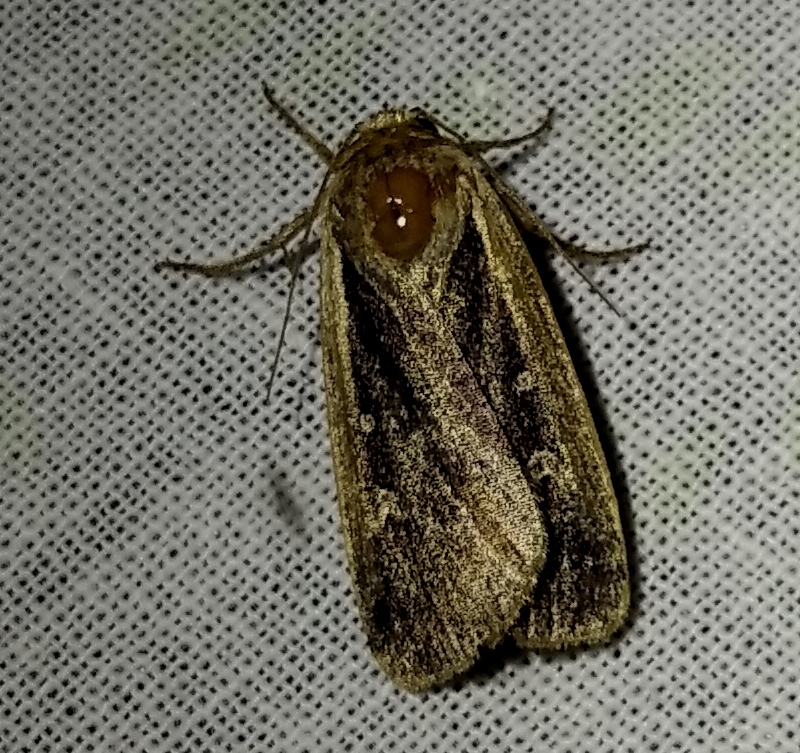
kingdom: Animalia
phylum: Arthropoda
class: Insecta
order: Lepidoptera
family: Noctuidae
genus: Ochropleura
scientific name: Ochropleura plecta
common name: Flame shoulder
